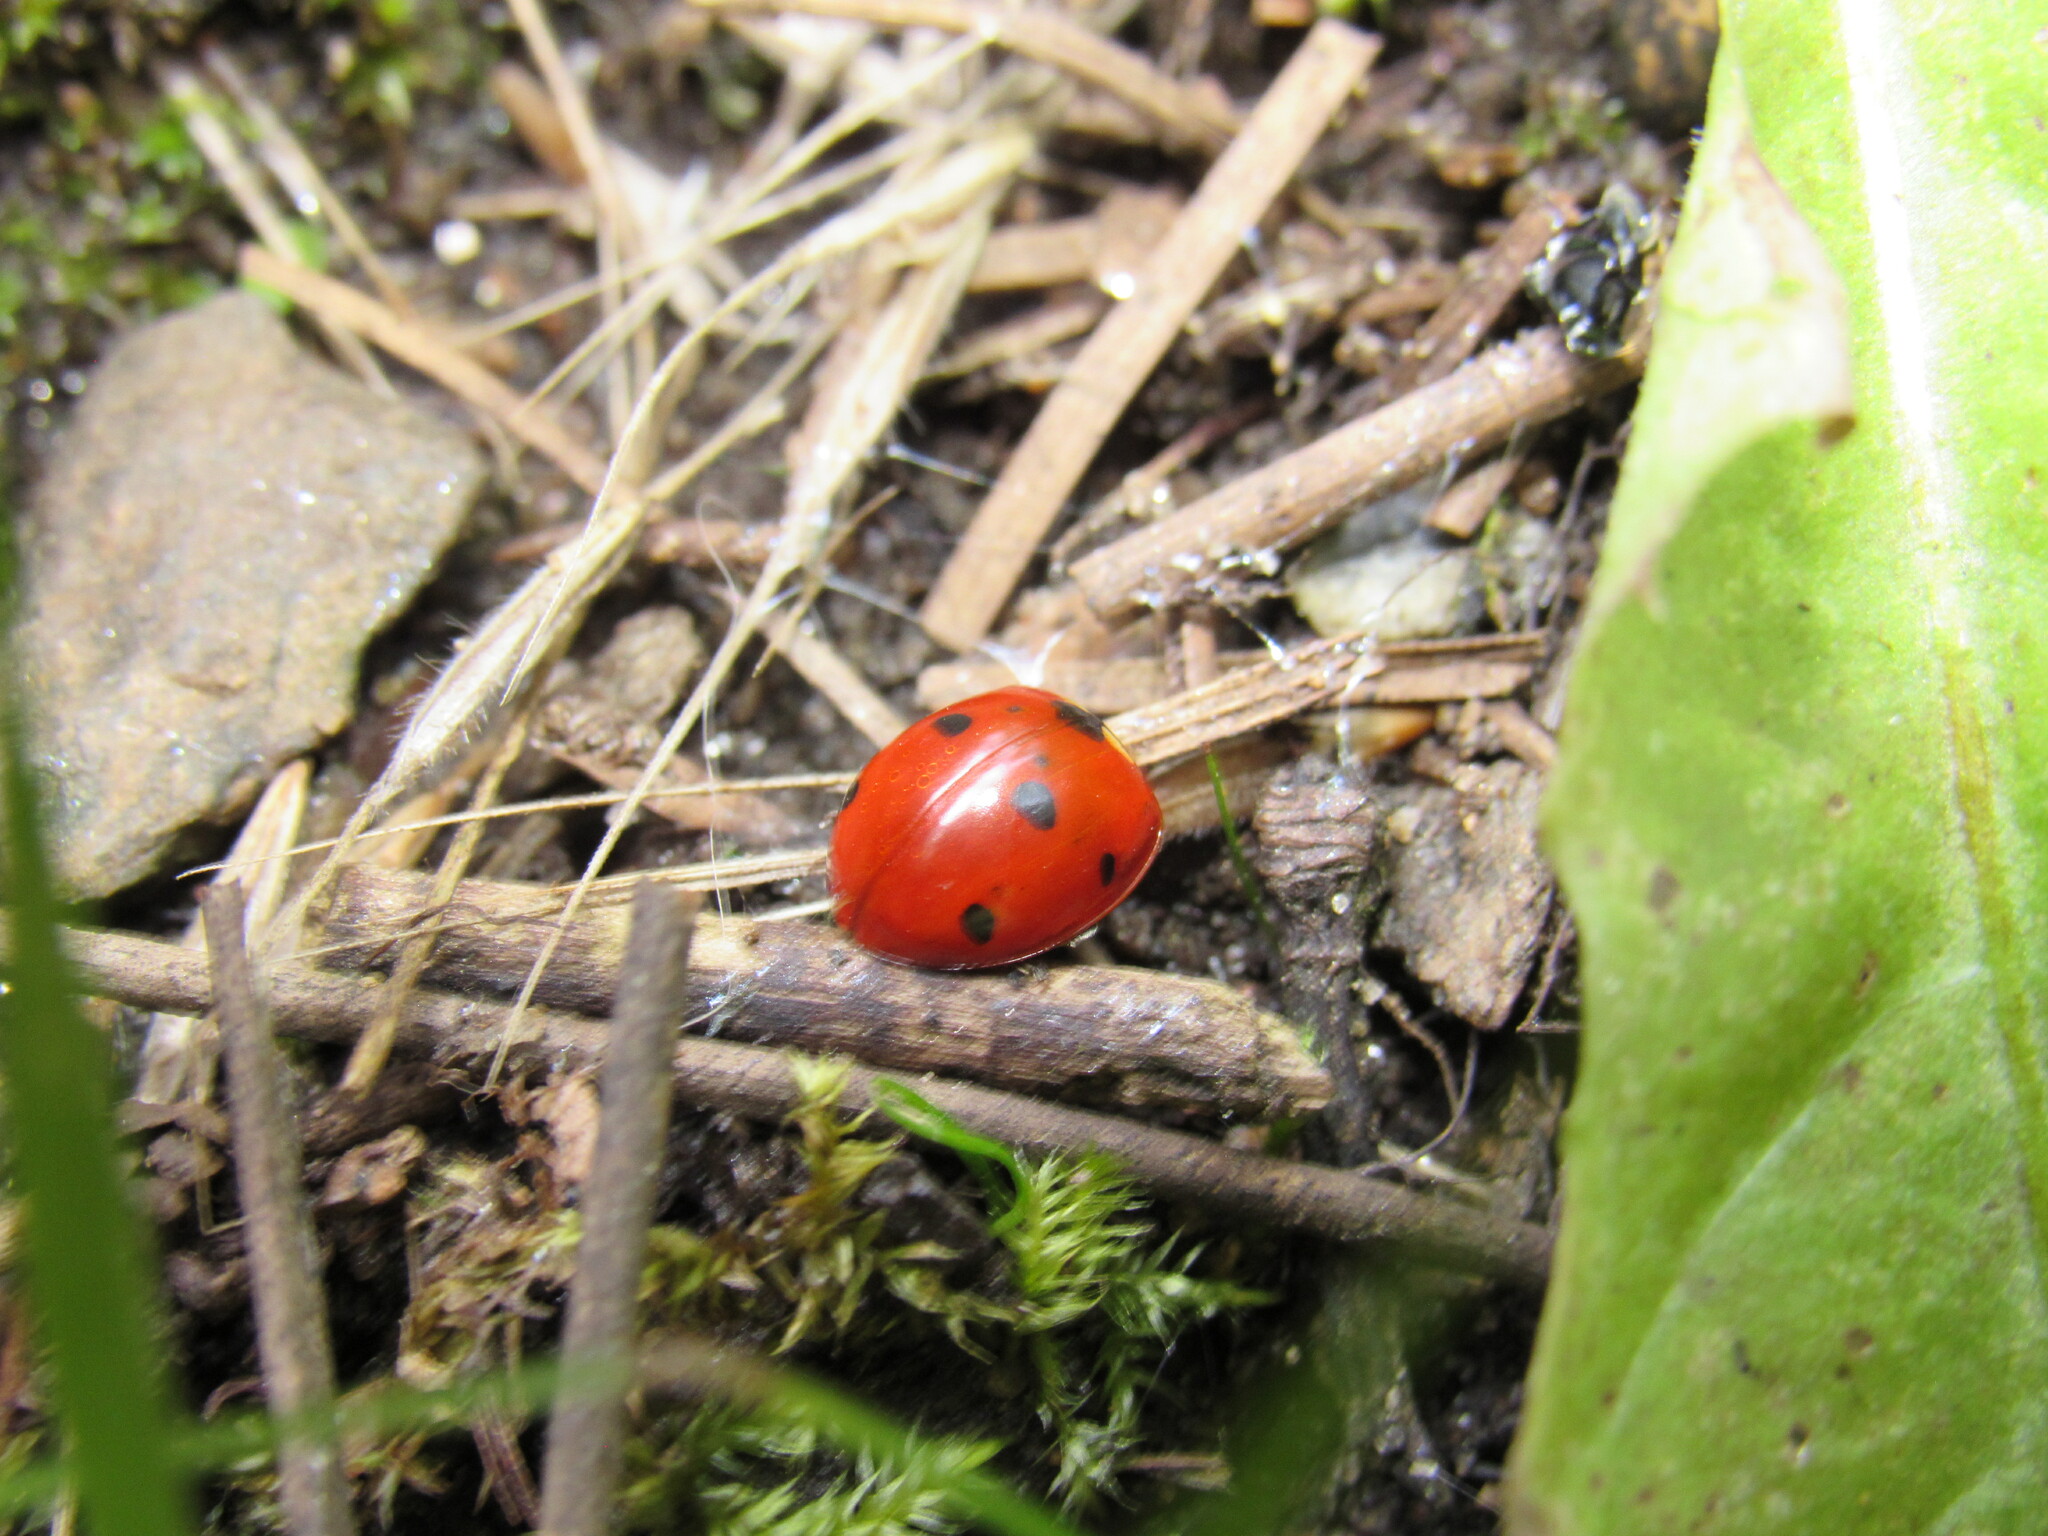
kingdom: Animalia
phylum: Arthropoda
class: Insecta
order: Coleoptera
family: Coccinellidae
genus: Coccinella
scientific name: Coccinella septempunctata
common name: Sevenspotted lady beetle
